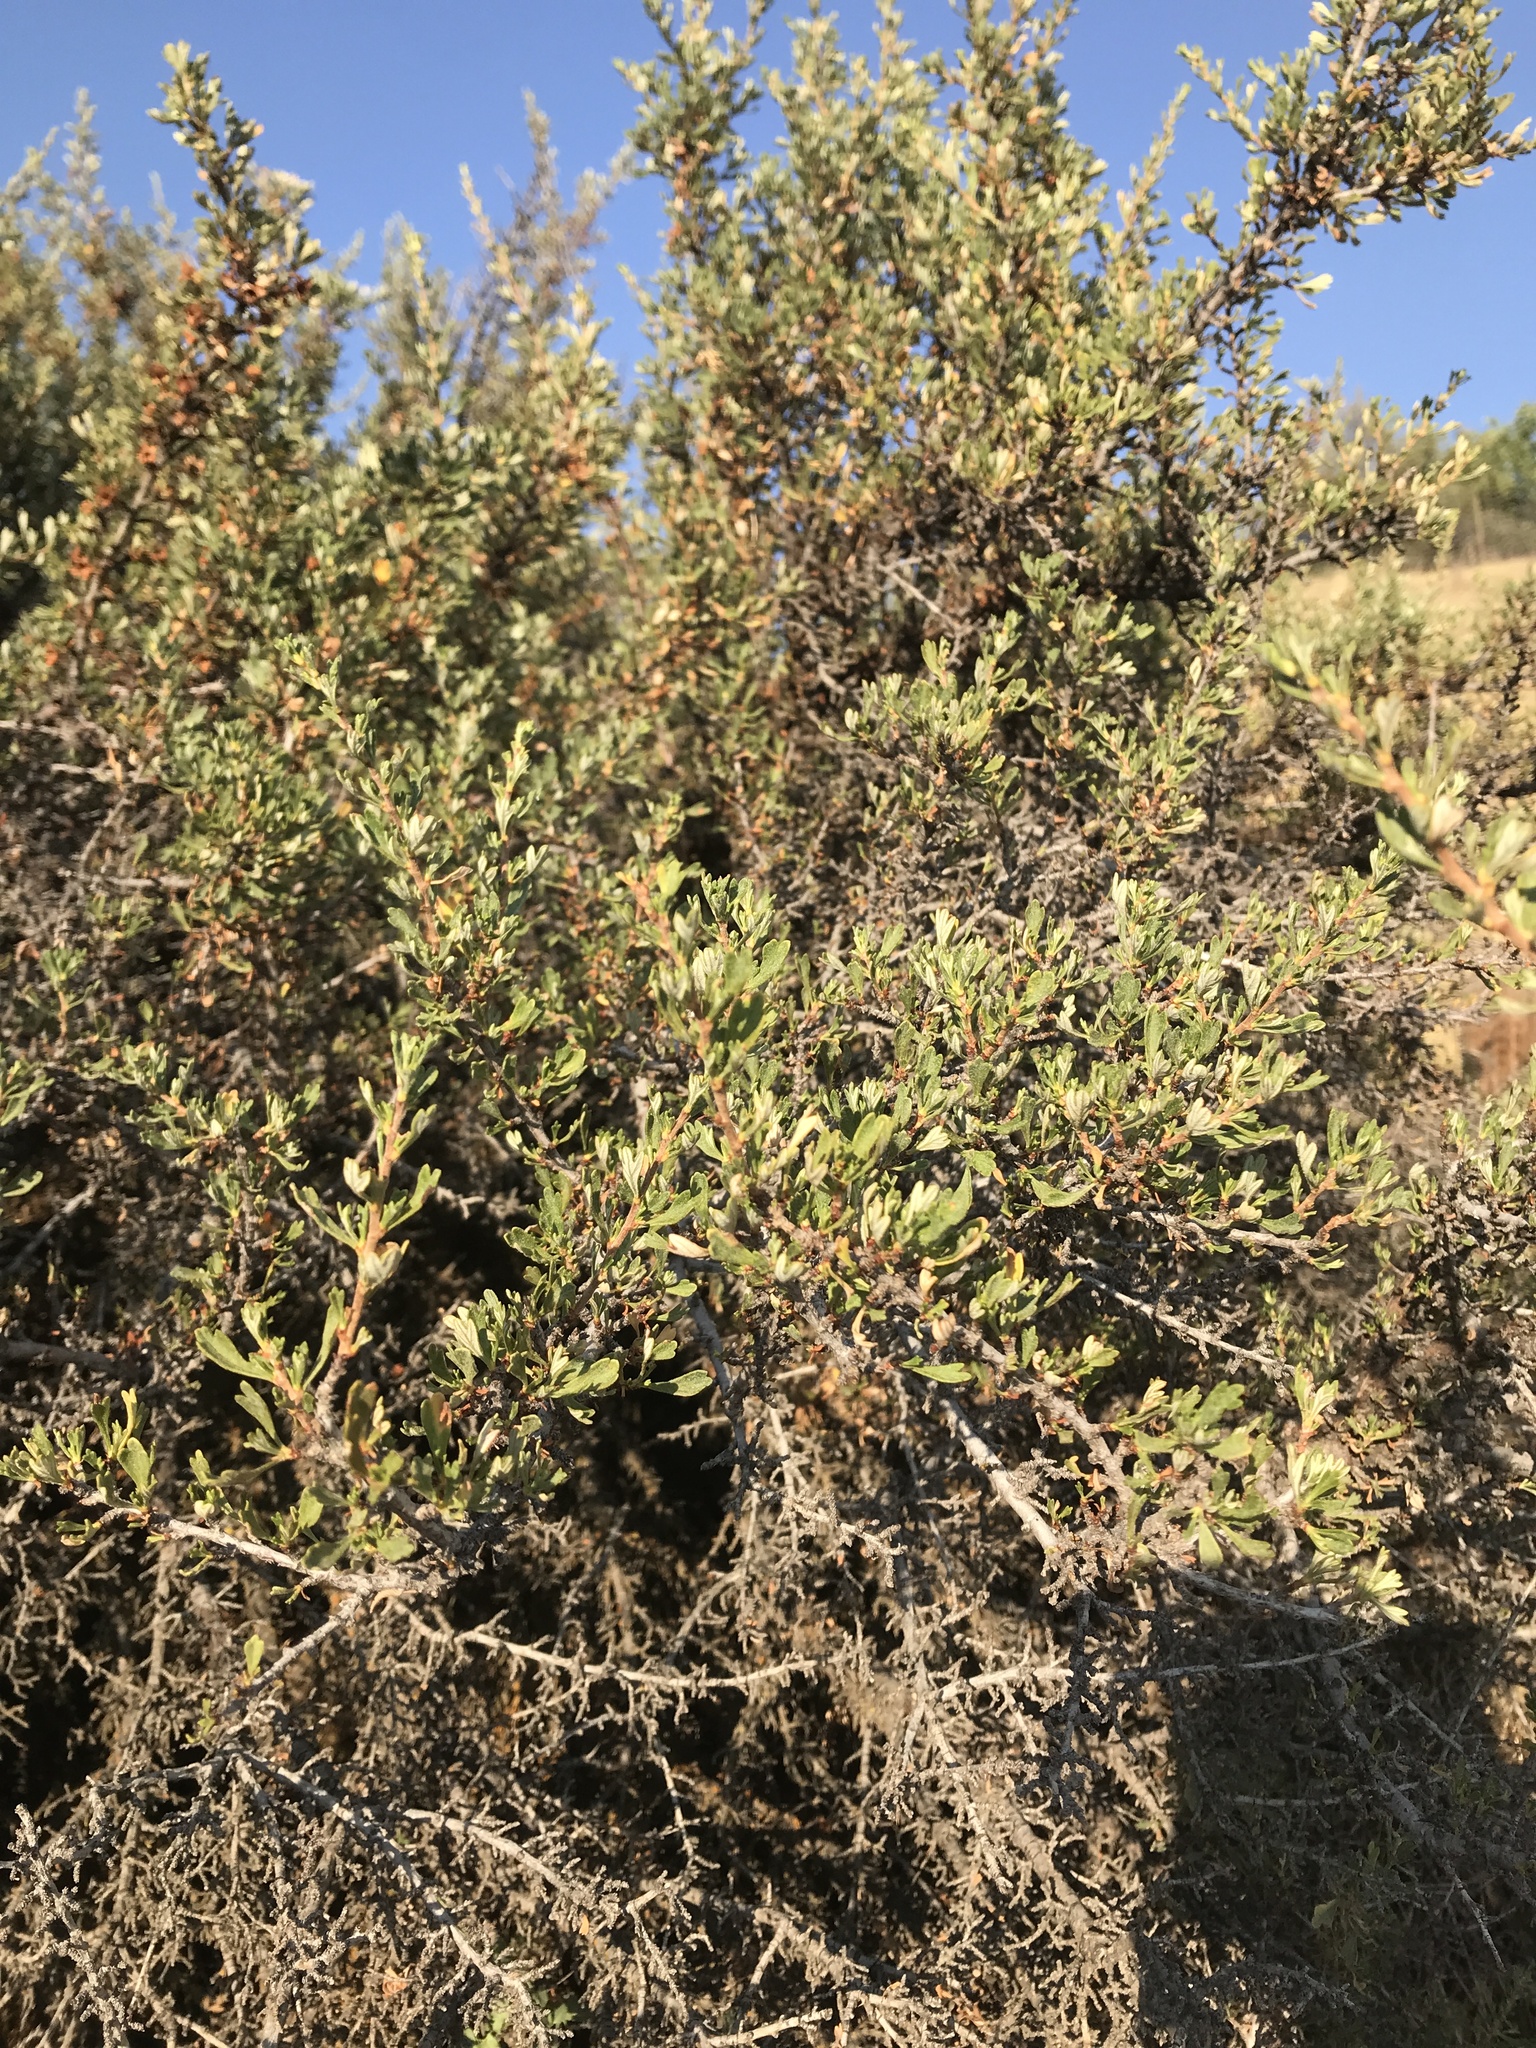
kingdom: Plantae
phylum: Tracheophyta
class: Magnoliopsida
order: Rosales
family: Rosaceae
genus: Purshia
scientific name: Purshia tridentata
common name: Antelope bitterbrush
